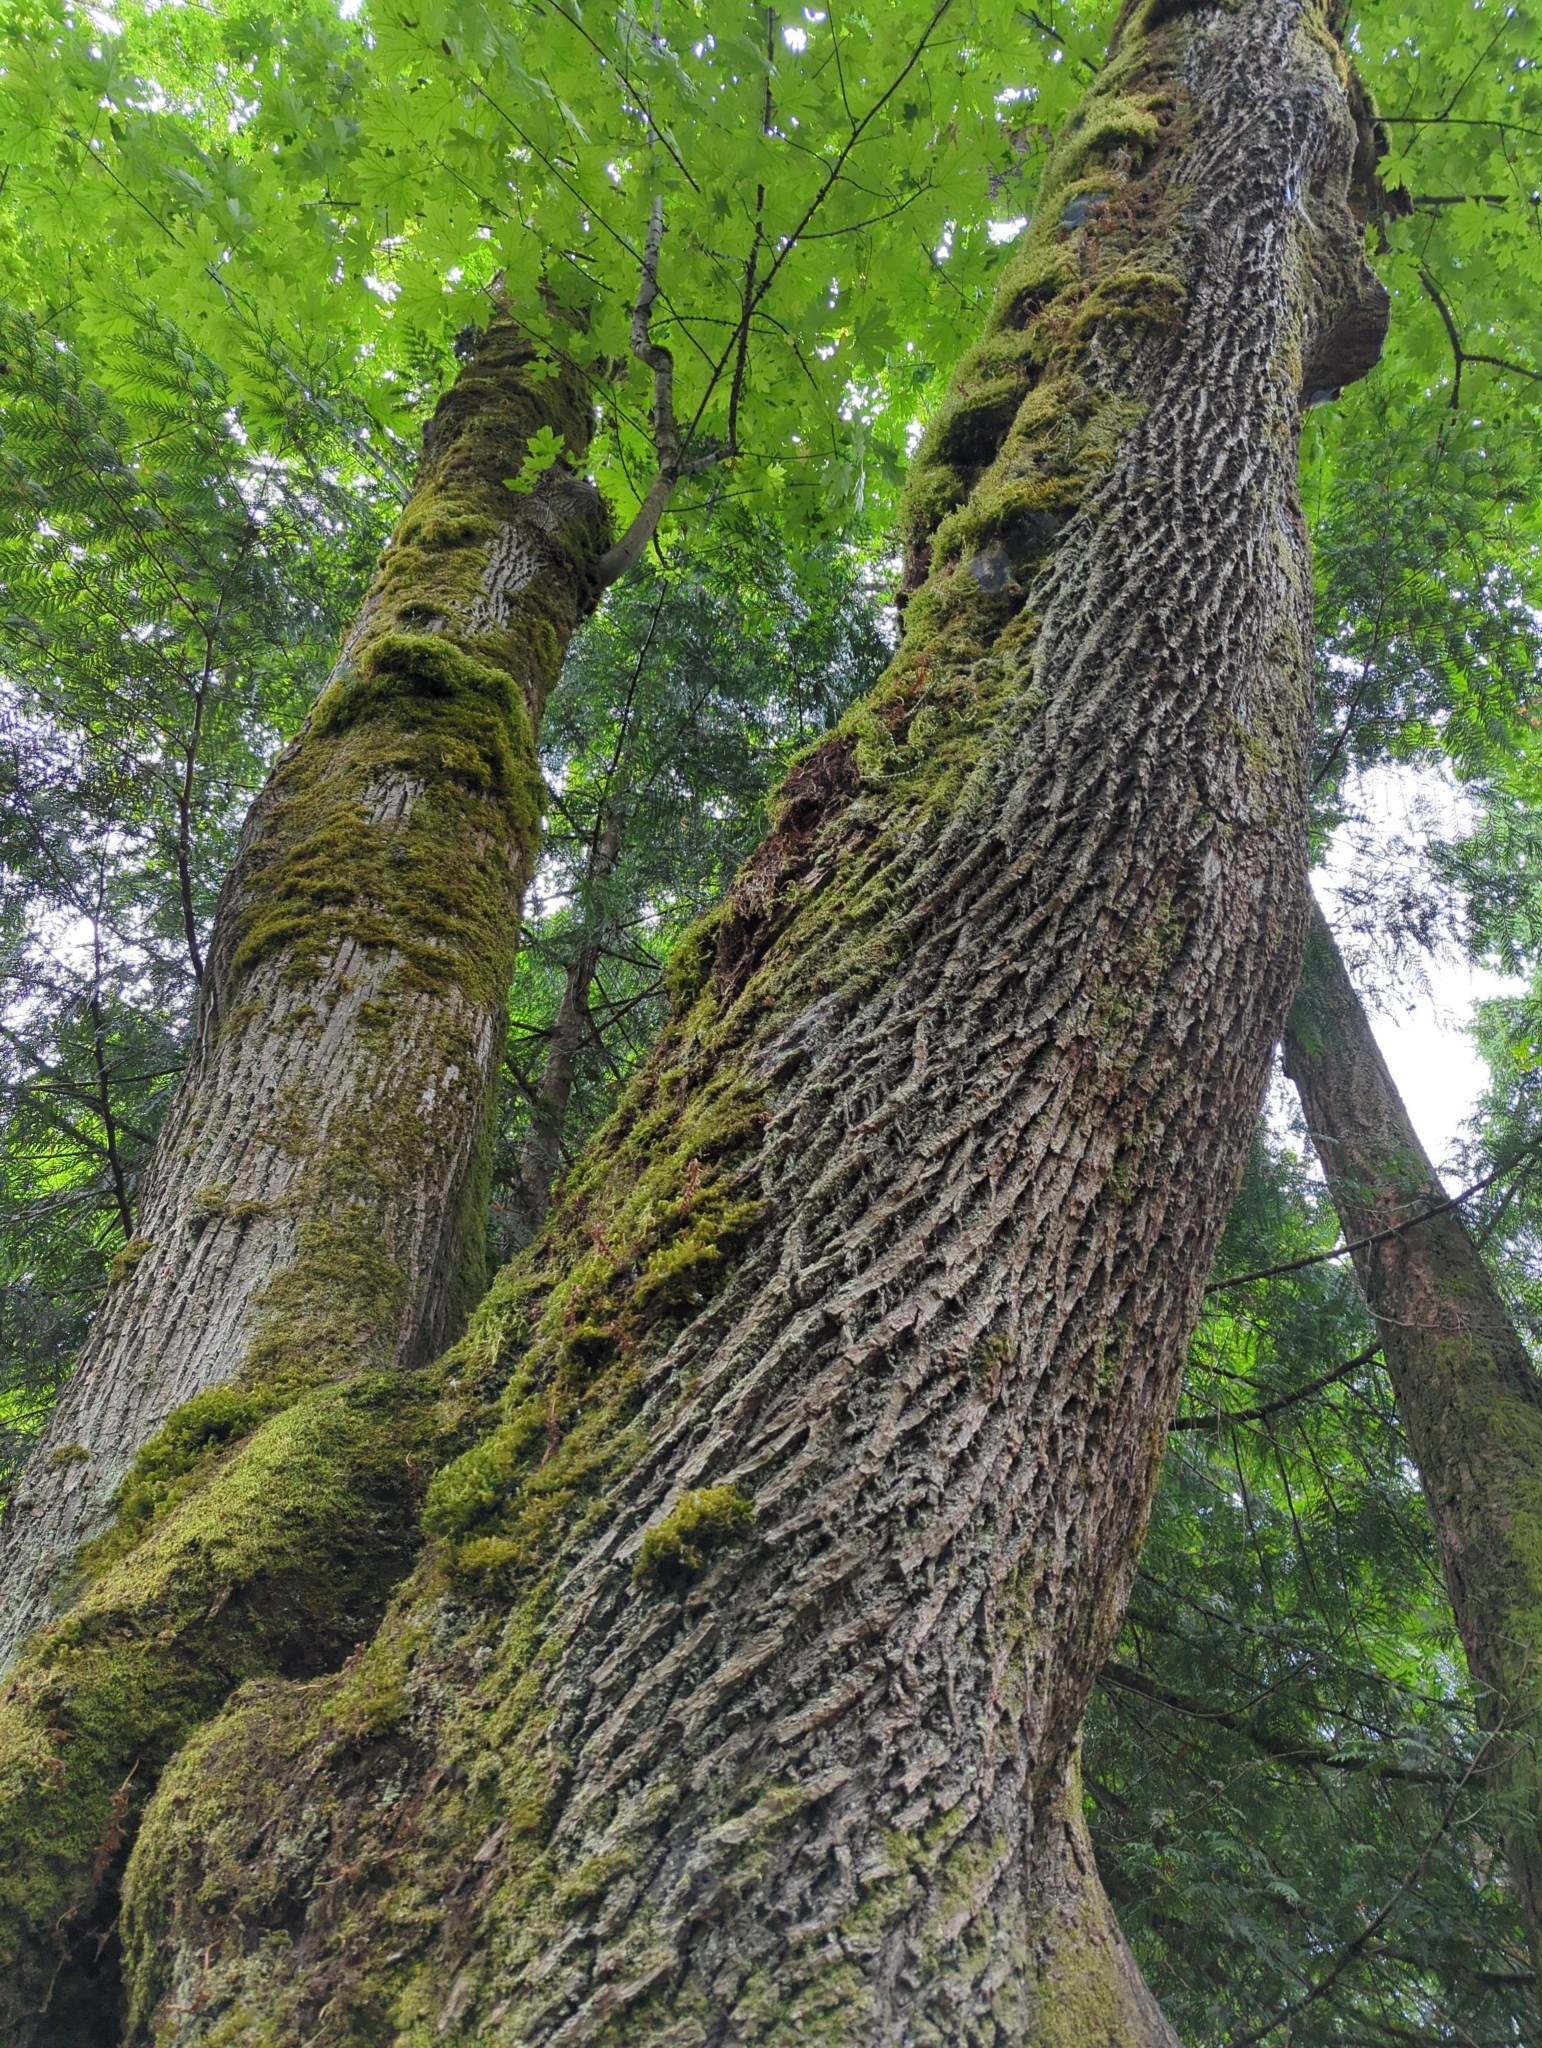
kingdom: Plantae
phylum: Tracheophyta
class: Magnoliopsida
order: Sapindales
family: Sapindaceae
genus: Acer
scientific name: Acer macrophyllum
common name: Oregon maple
